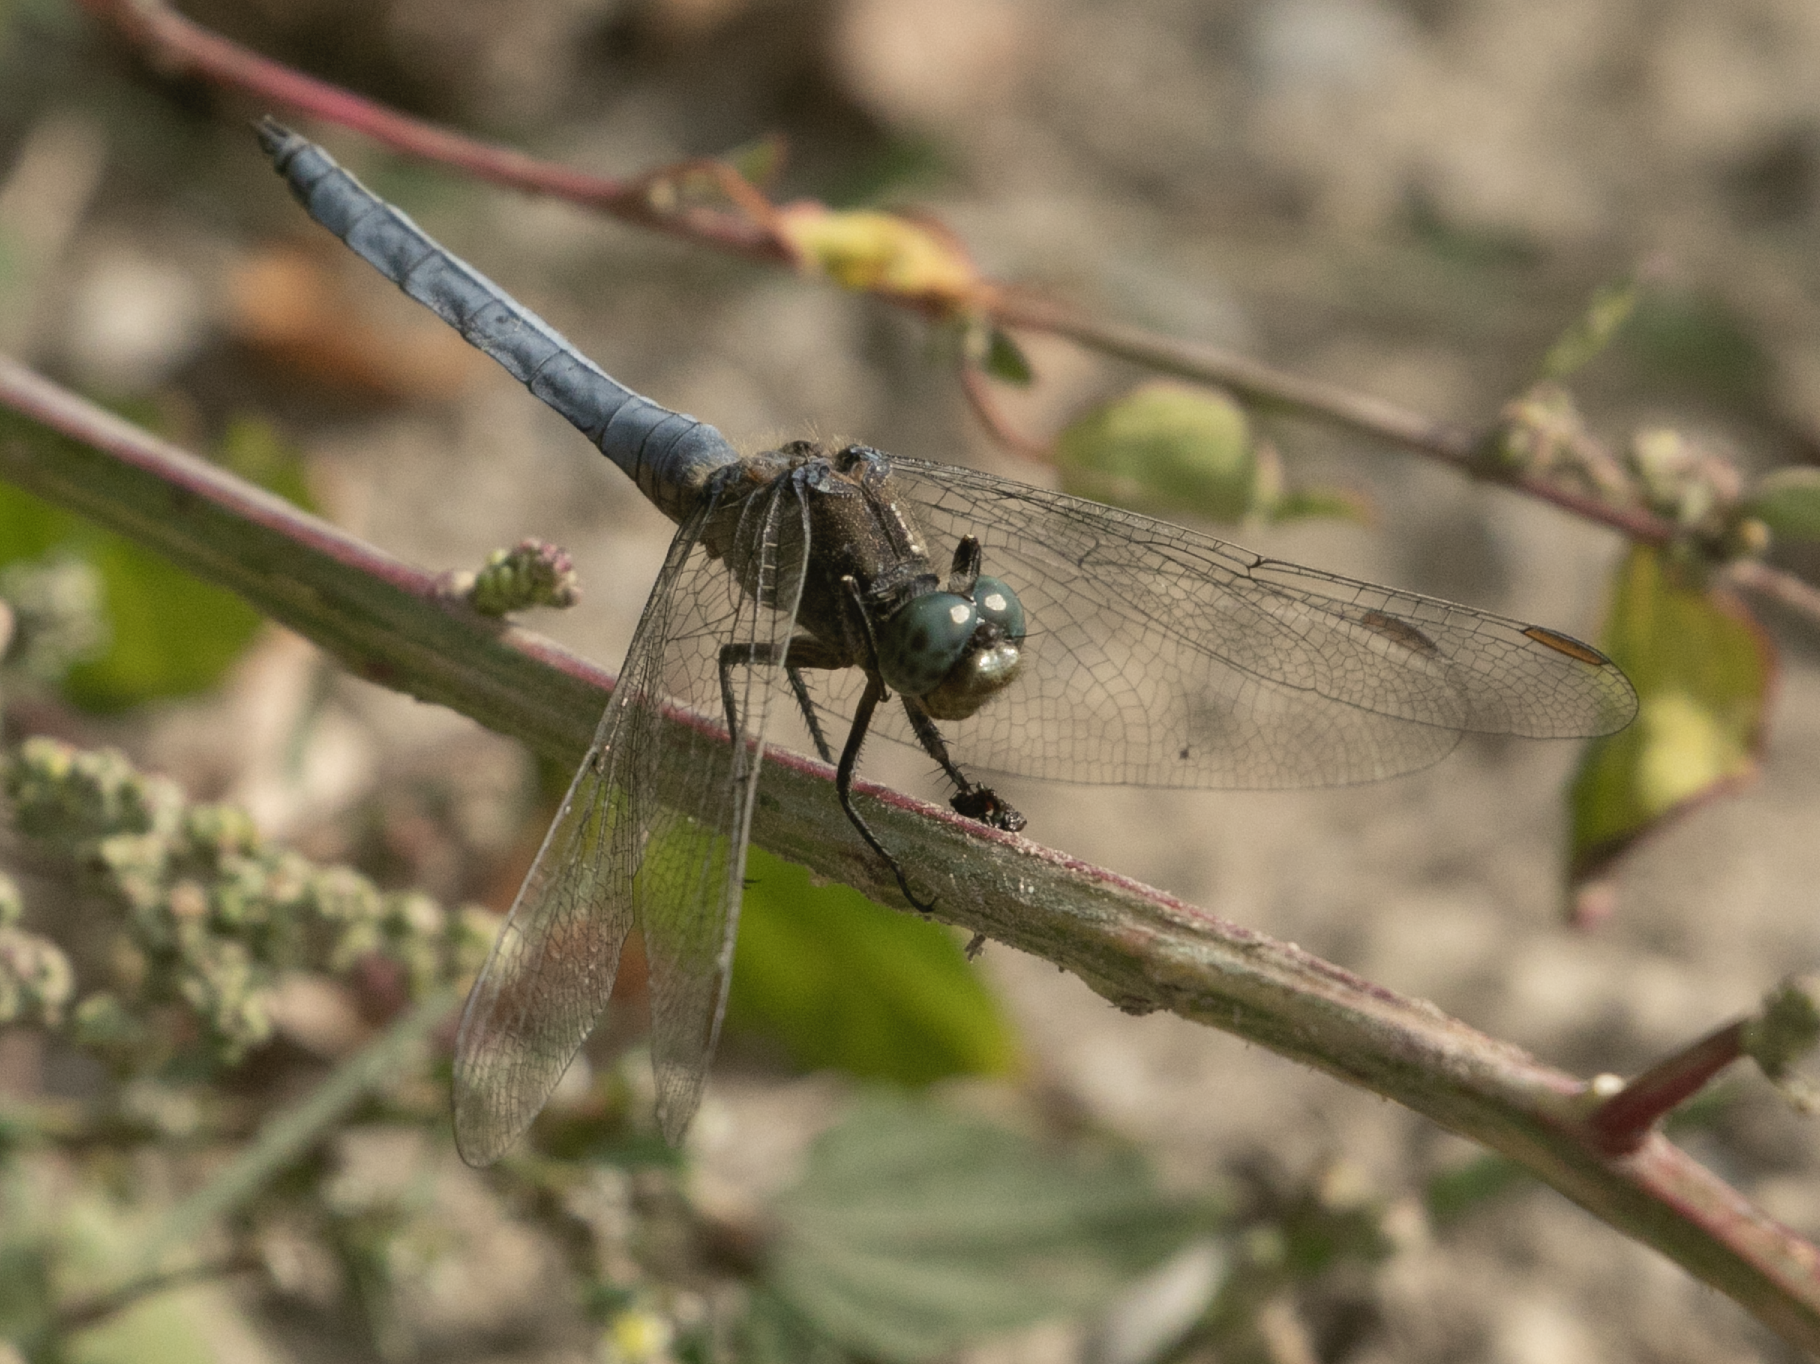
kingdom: Animalia
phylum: Arthropoda
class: Insecta
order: Odonata
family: Libellulidae
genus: Orthetrum
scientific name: Orthetrum coerulescens
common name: Keeled skimmer
